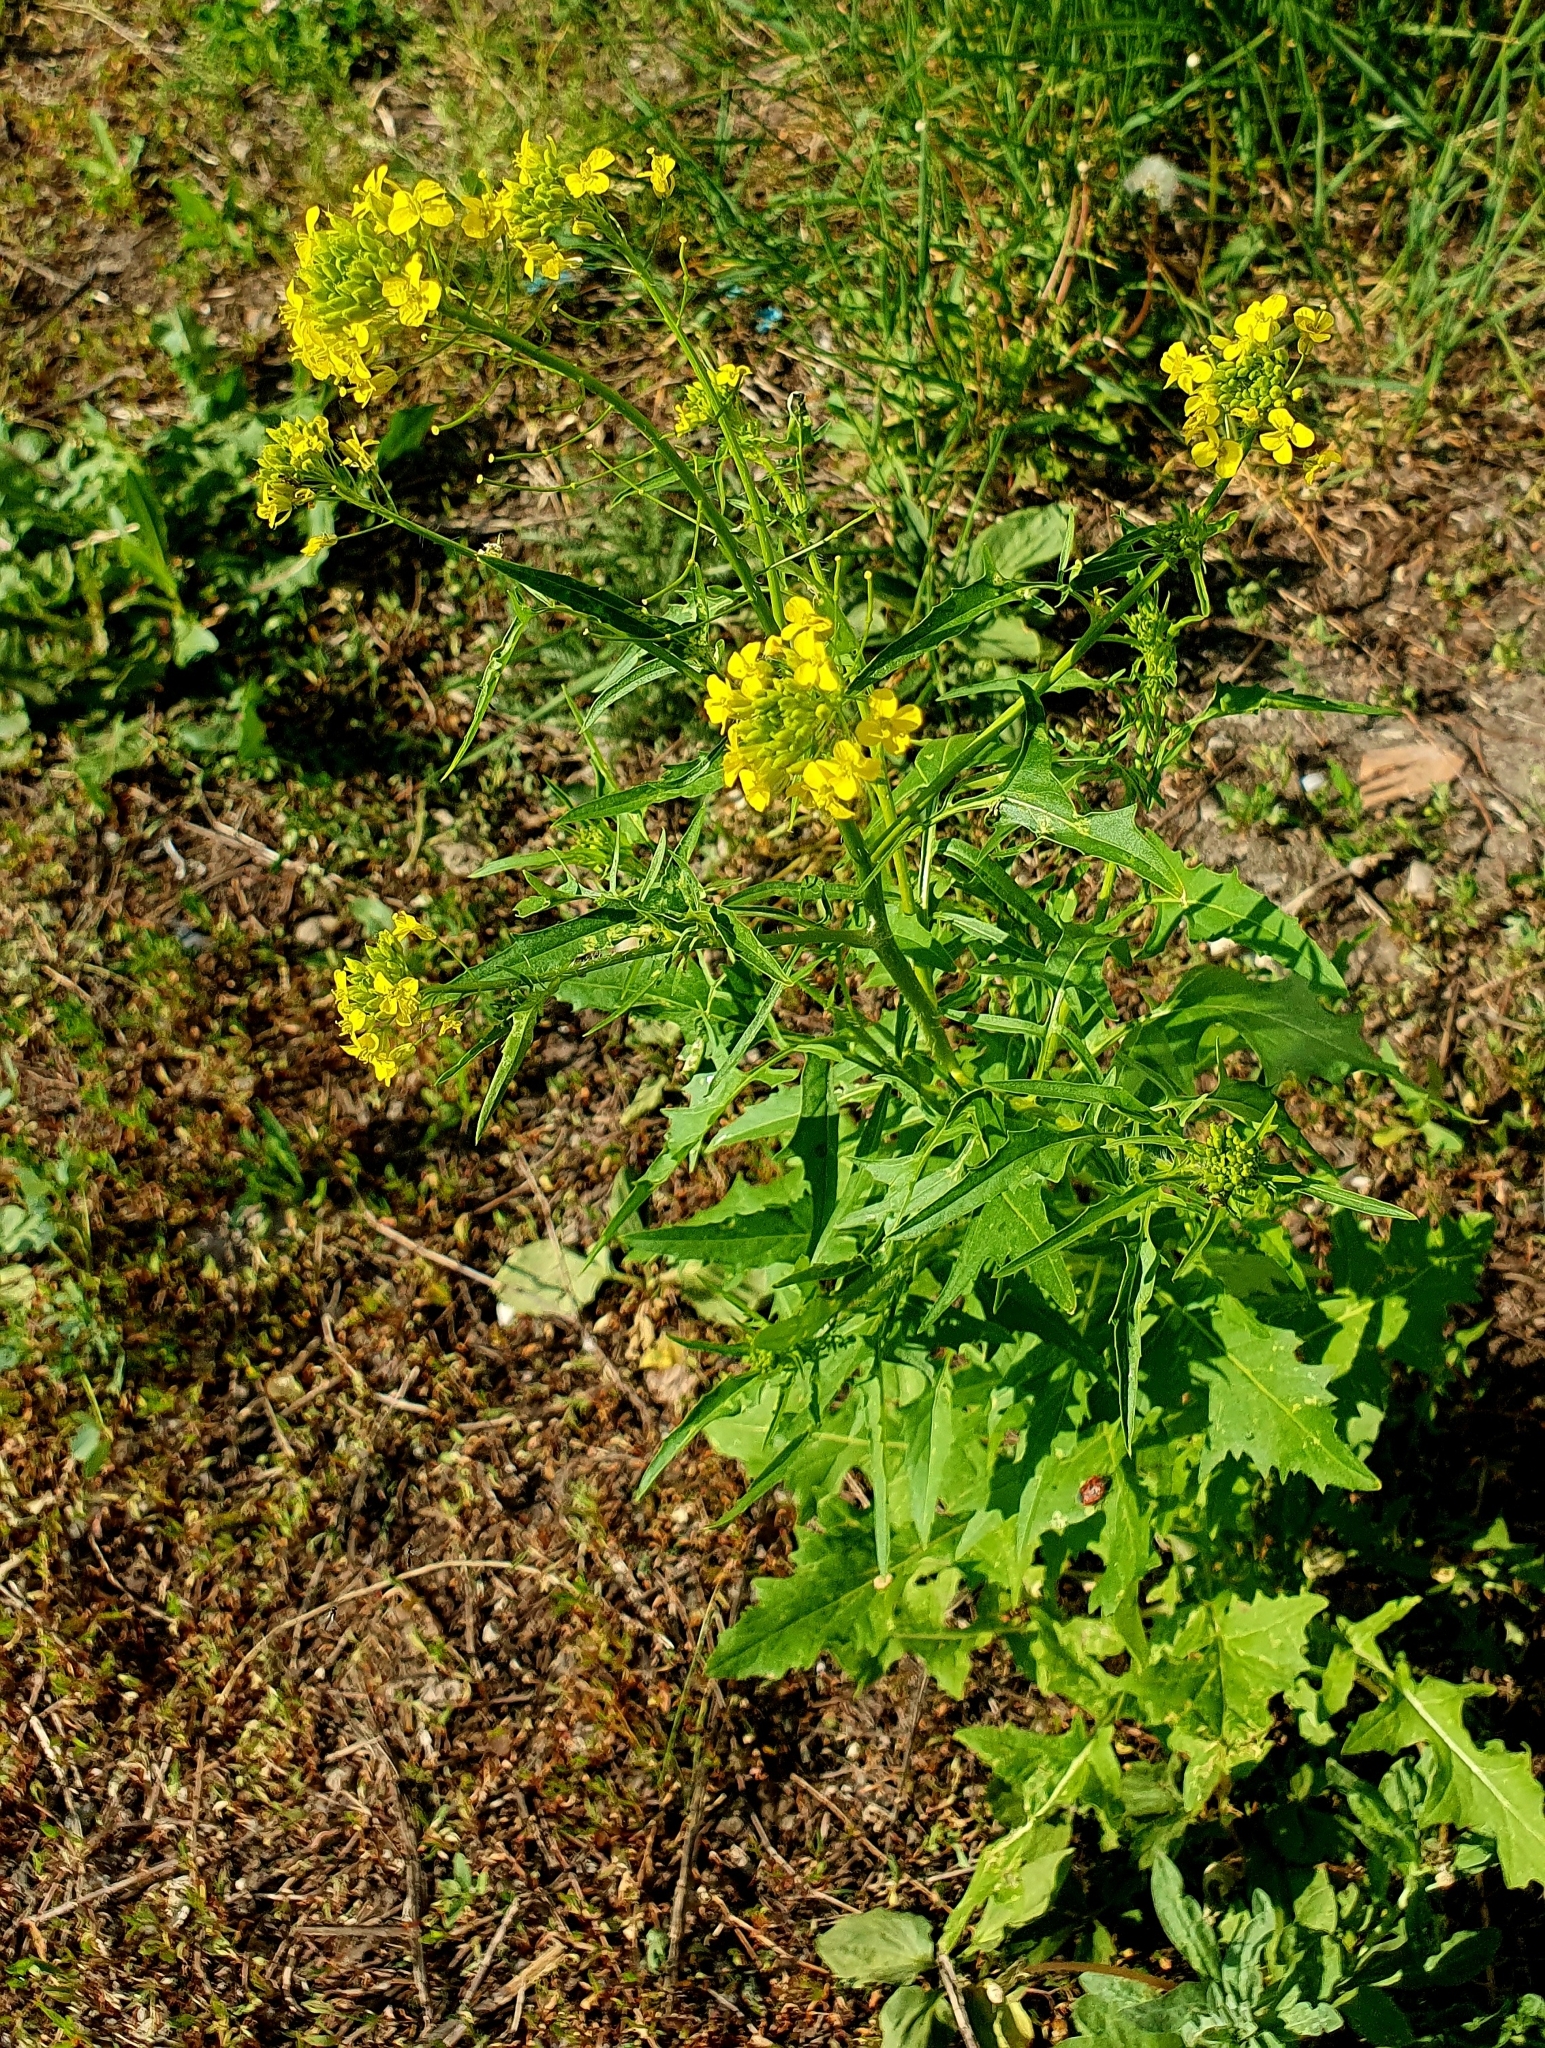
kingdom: Plantae
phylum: Tracheophyta
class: Magnoliopsida
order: Brassicales
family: Brassicaceae
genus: Sisymbrium
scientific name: Sisymbrium loeselii
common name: False london-rocket
